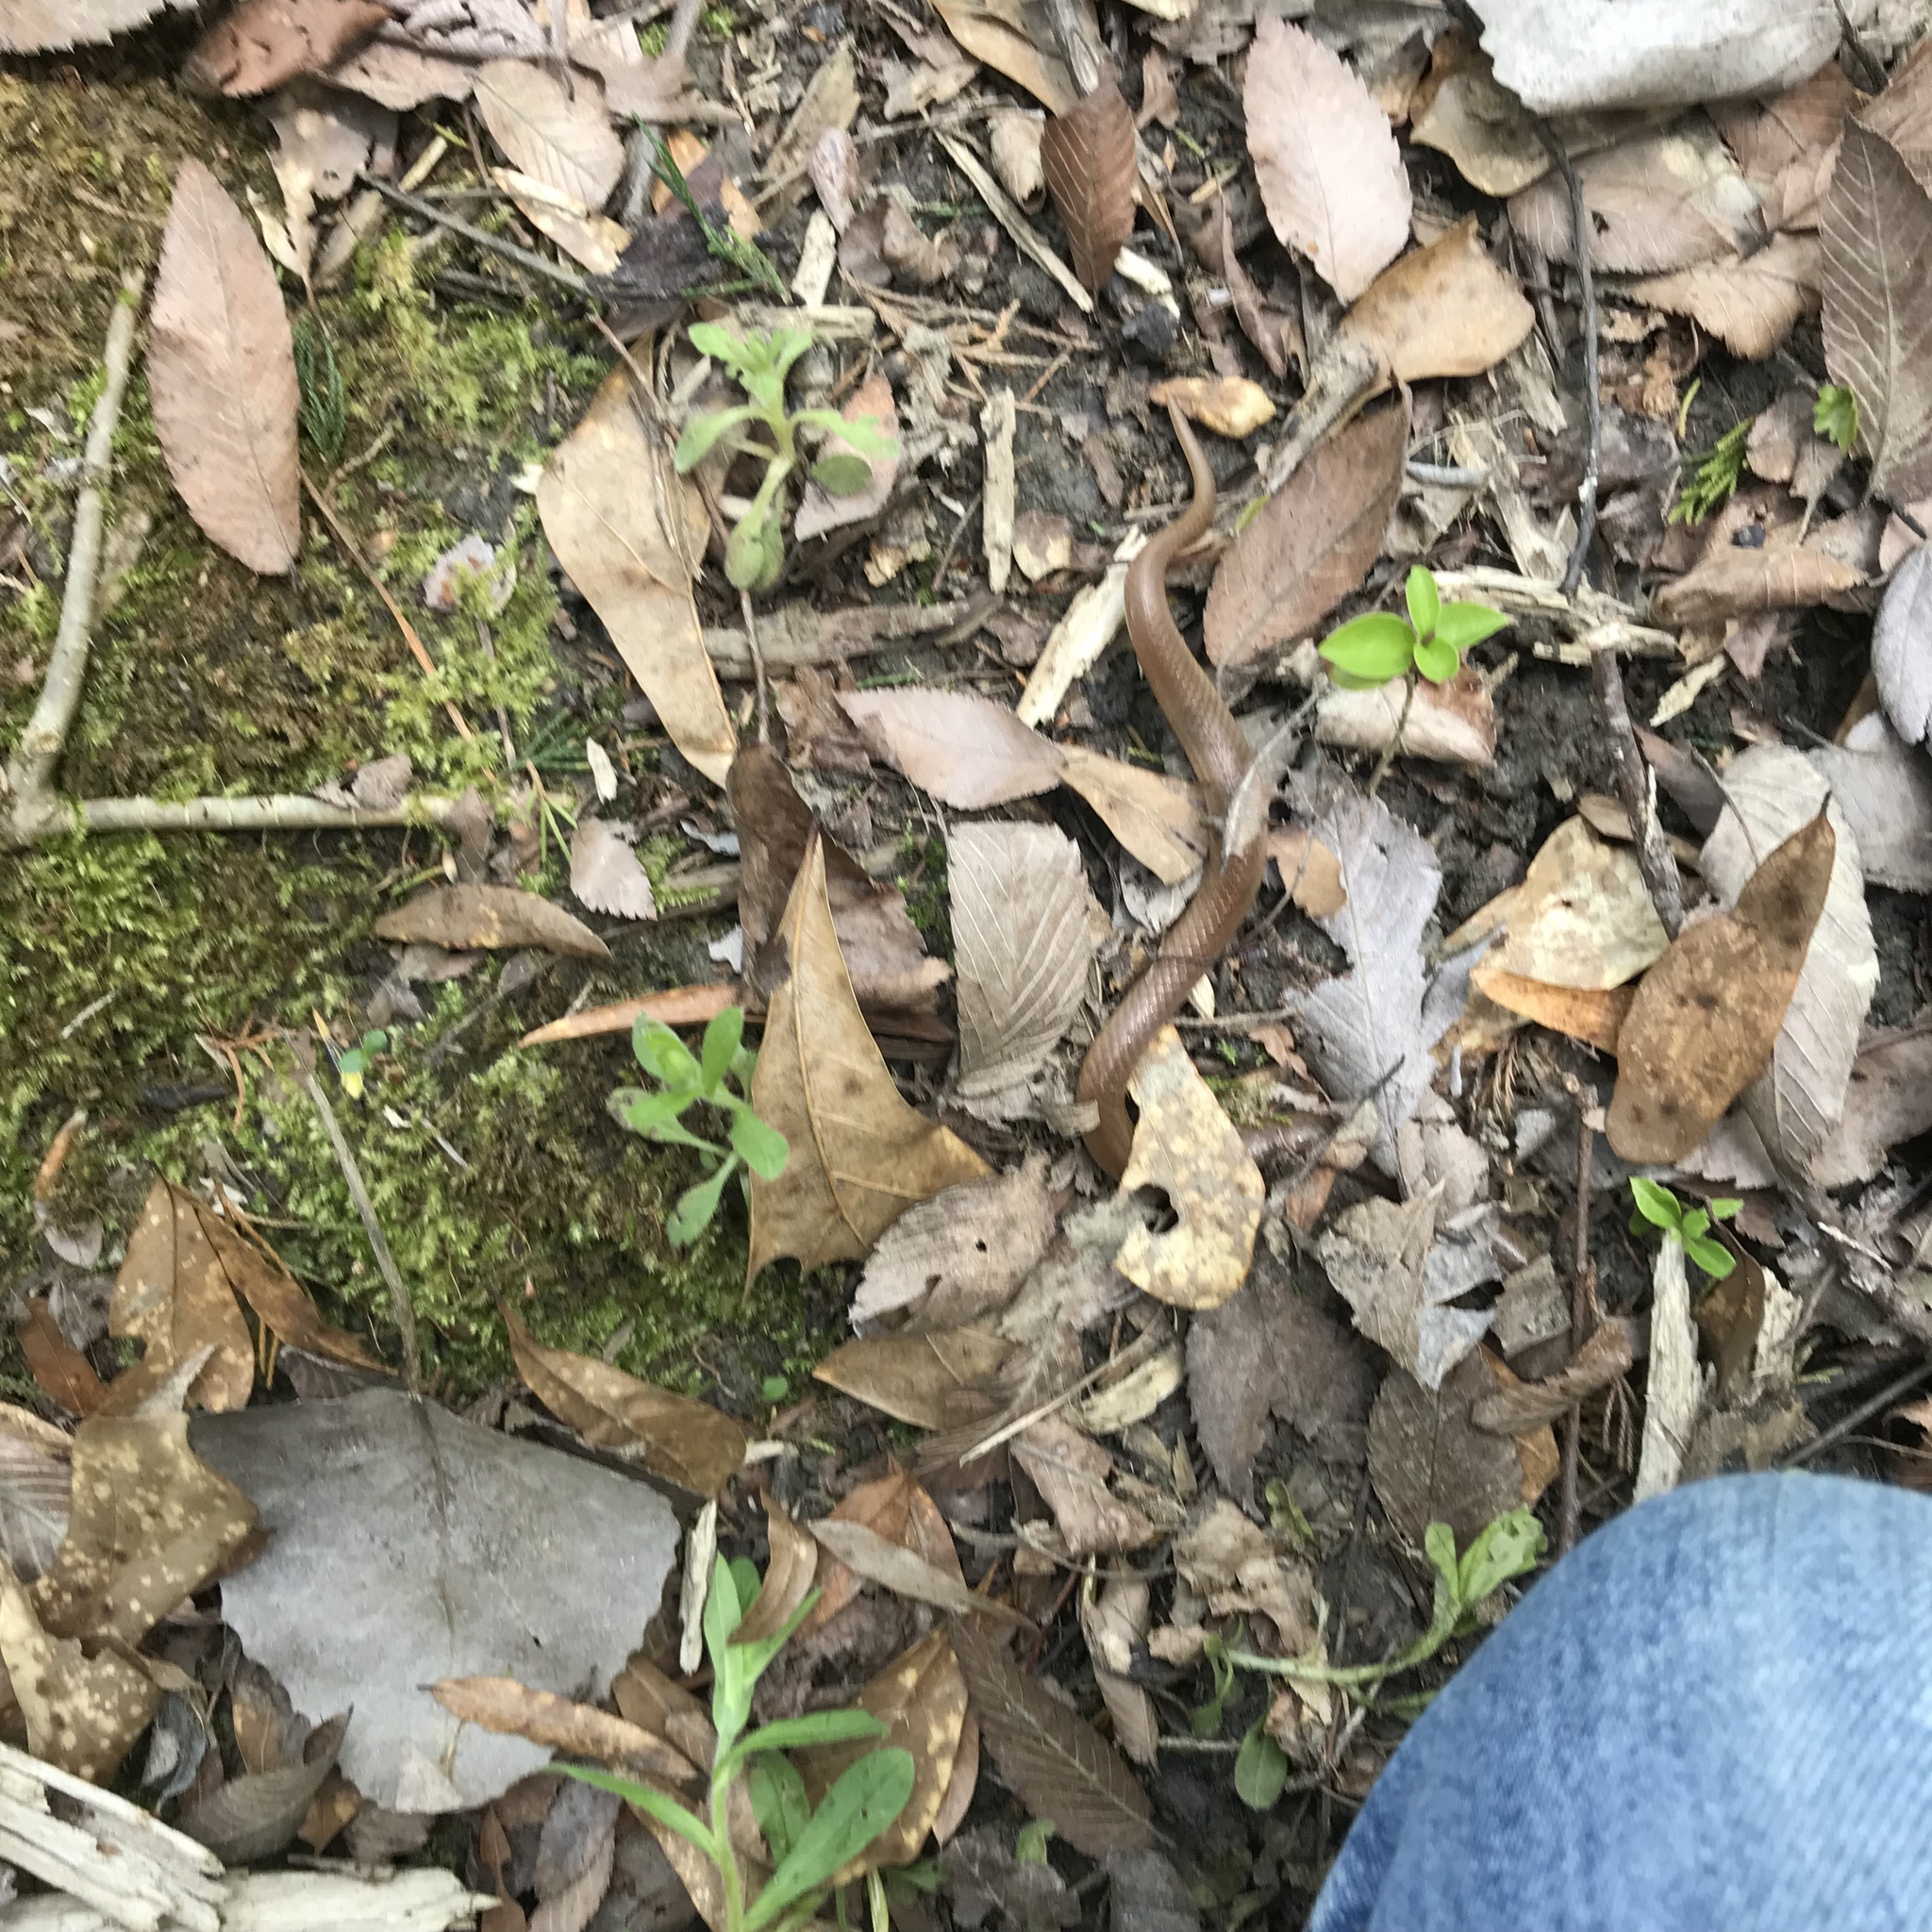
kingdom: Animalia
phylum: Chordata
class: Squamata
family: Colubridae
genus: Carphophis
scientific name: Carphophis amoenus
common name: Eastern worm snake
